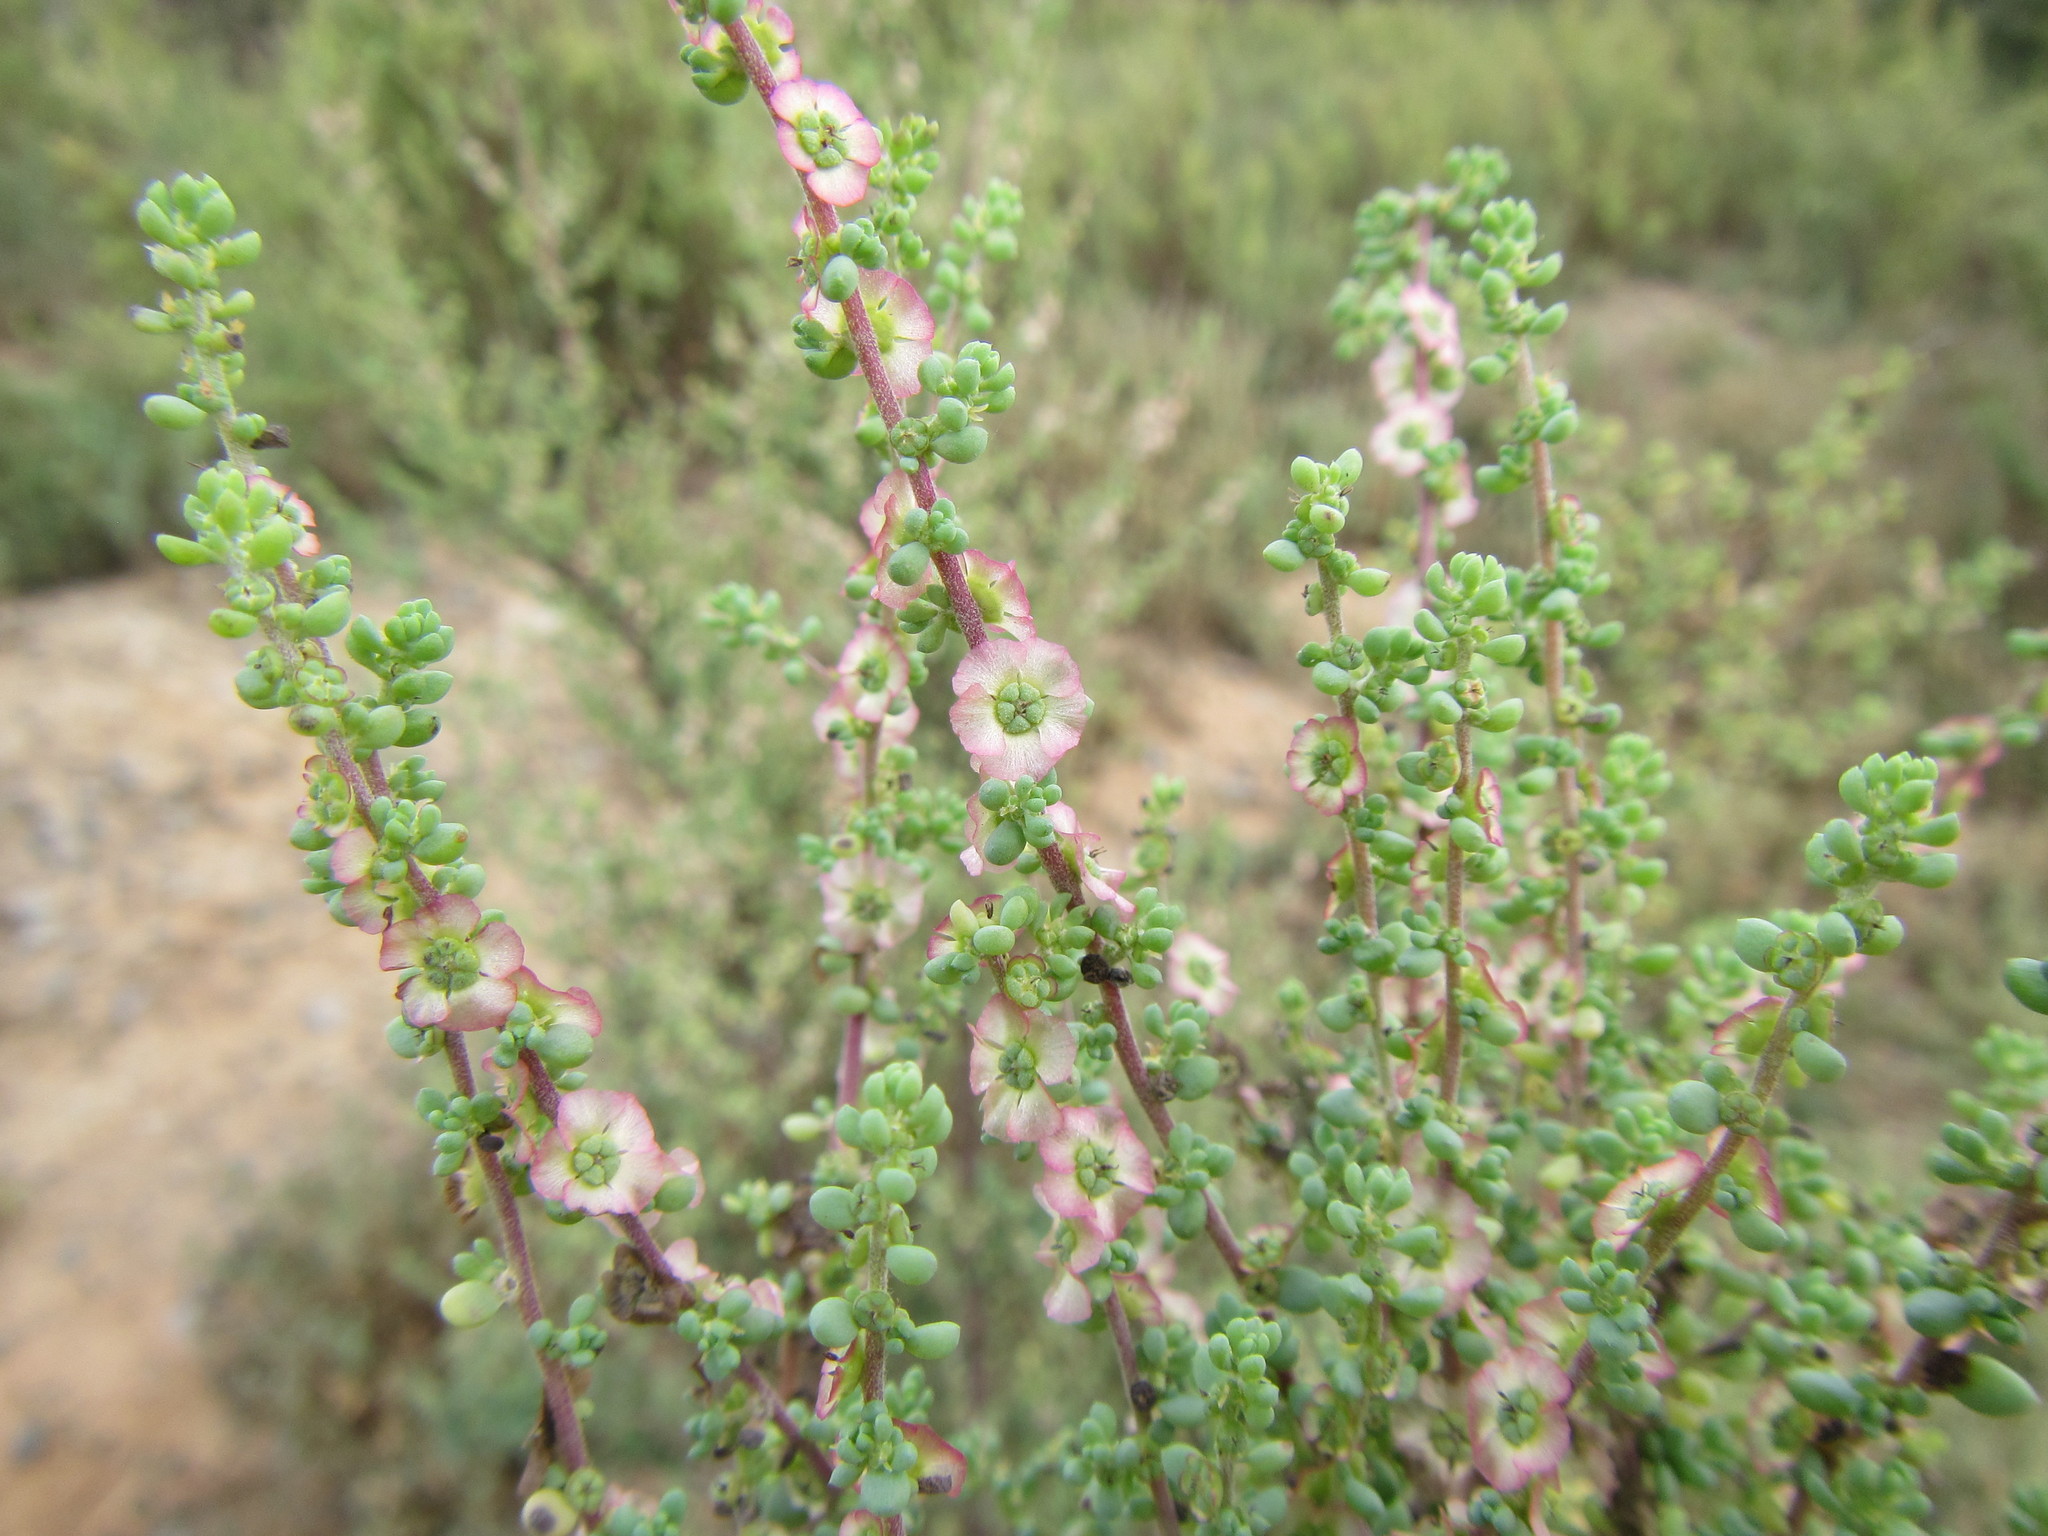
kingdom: Plantae
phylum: Tracheophyta
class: Magnoliopsida
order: Caryophyllales
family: Amaranthaceae
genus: Maireana
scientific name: Maireana brevifolia
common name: Eastern cottonbush
